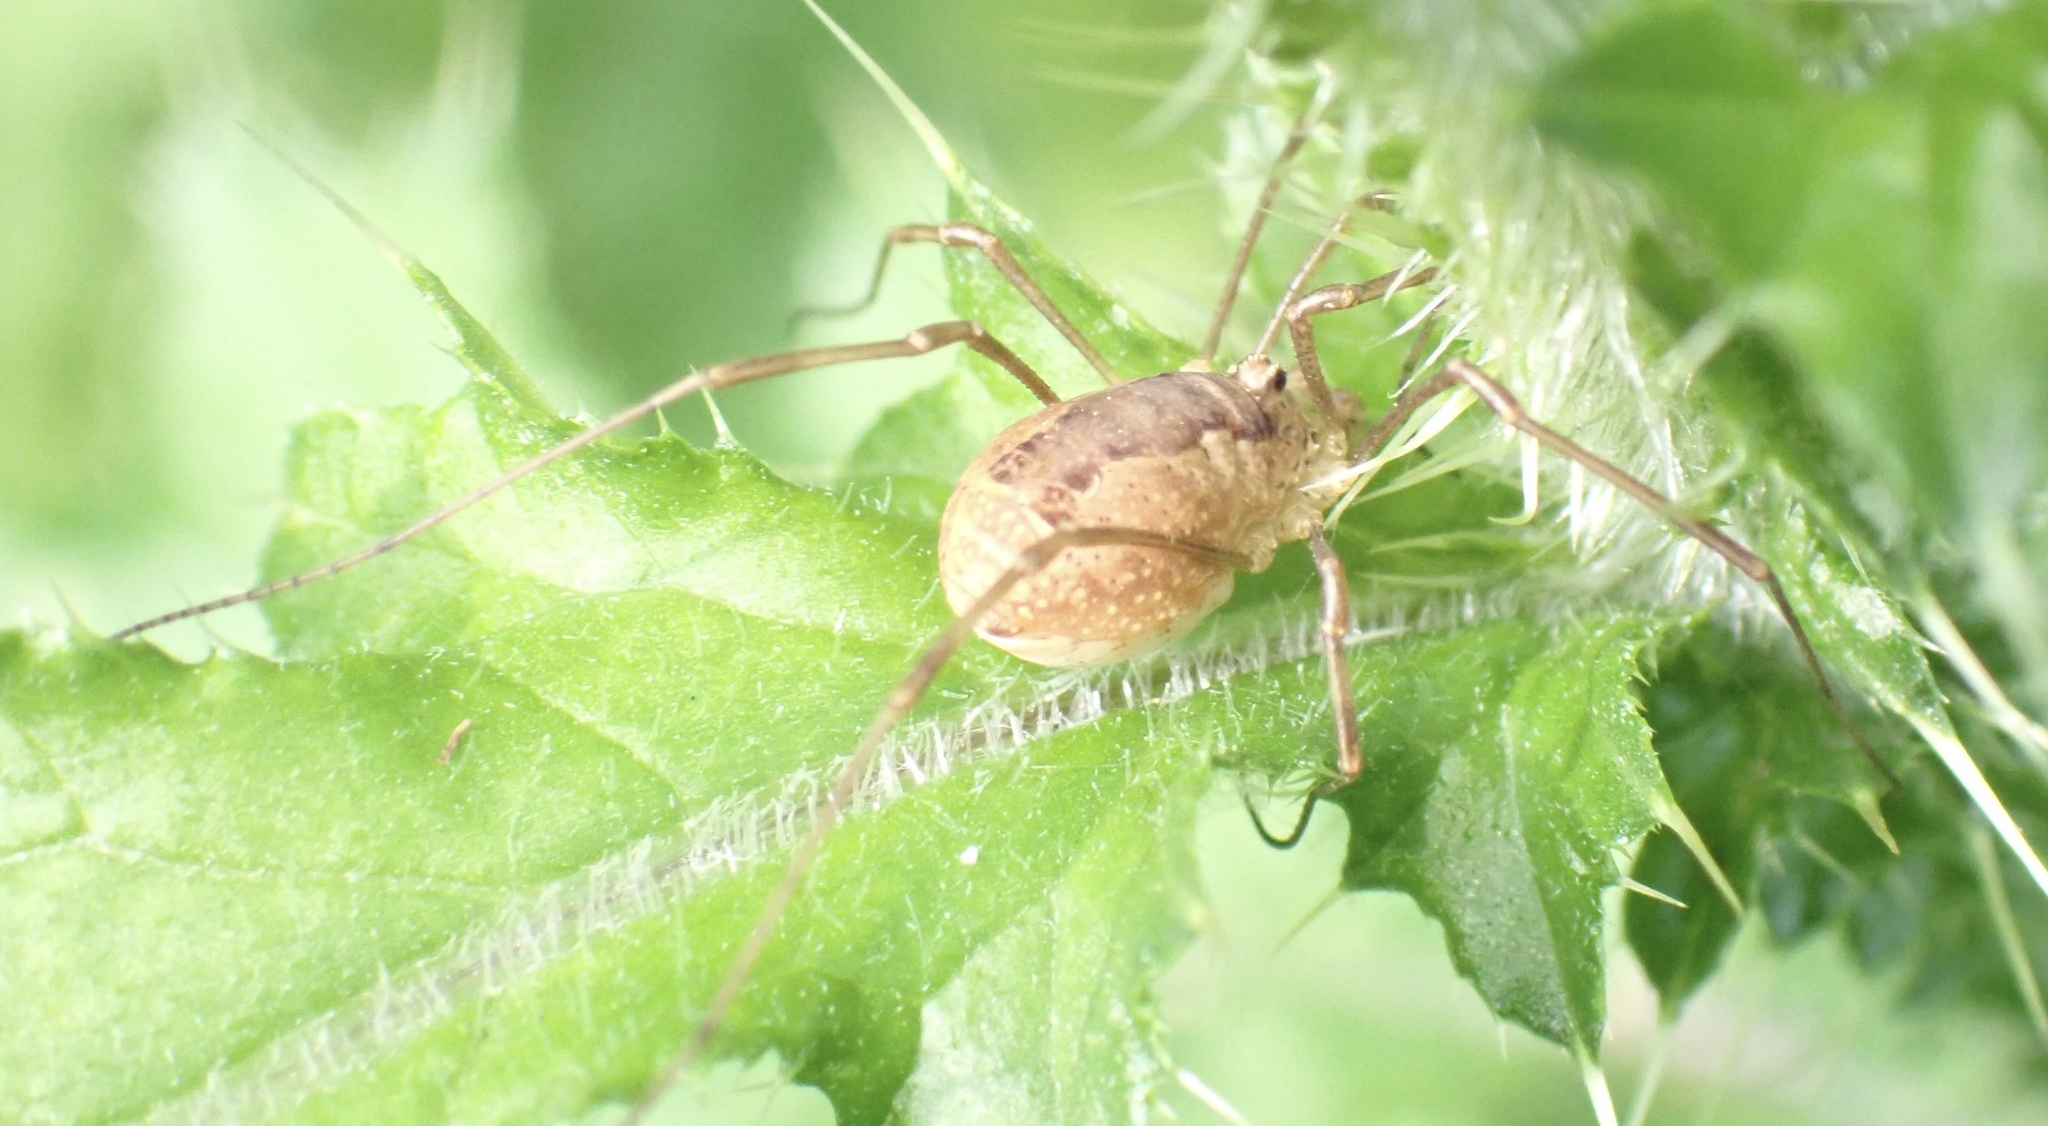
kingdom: Animalia
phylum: Arthropoda
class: Arachnida
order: Opiliones
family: Phalangiidae
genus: Rilaena
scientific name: Rilaena triangularis
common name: Spring harvestman
